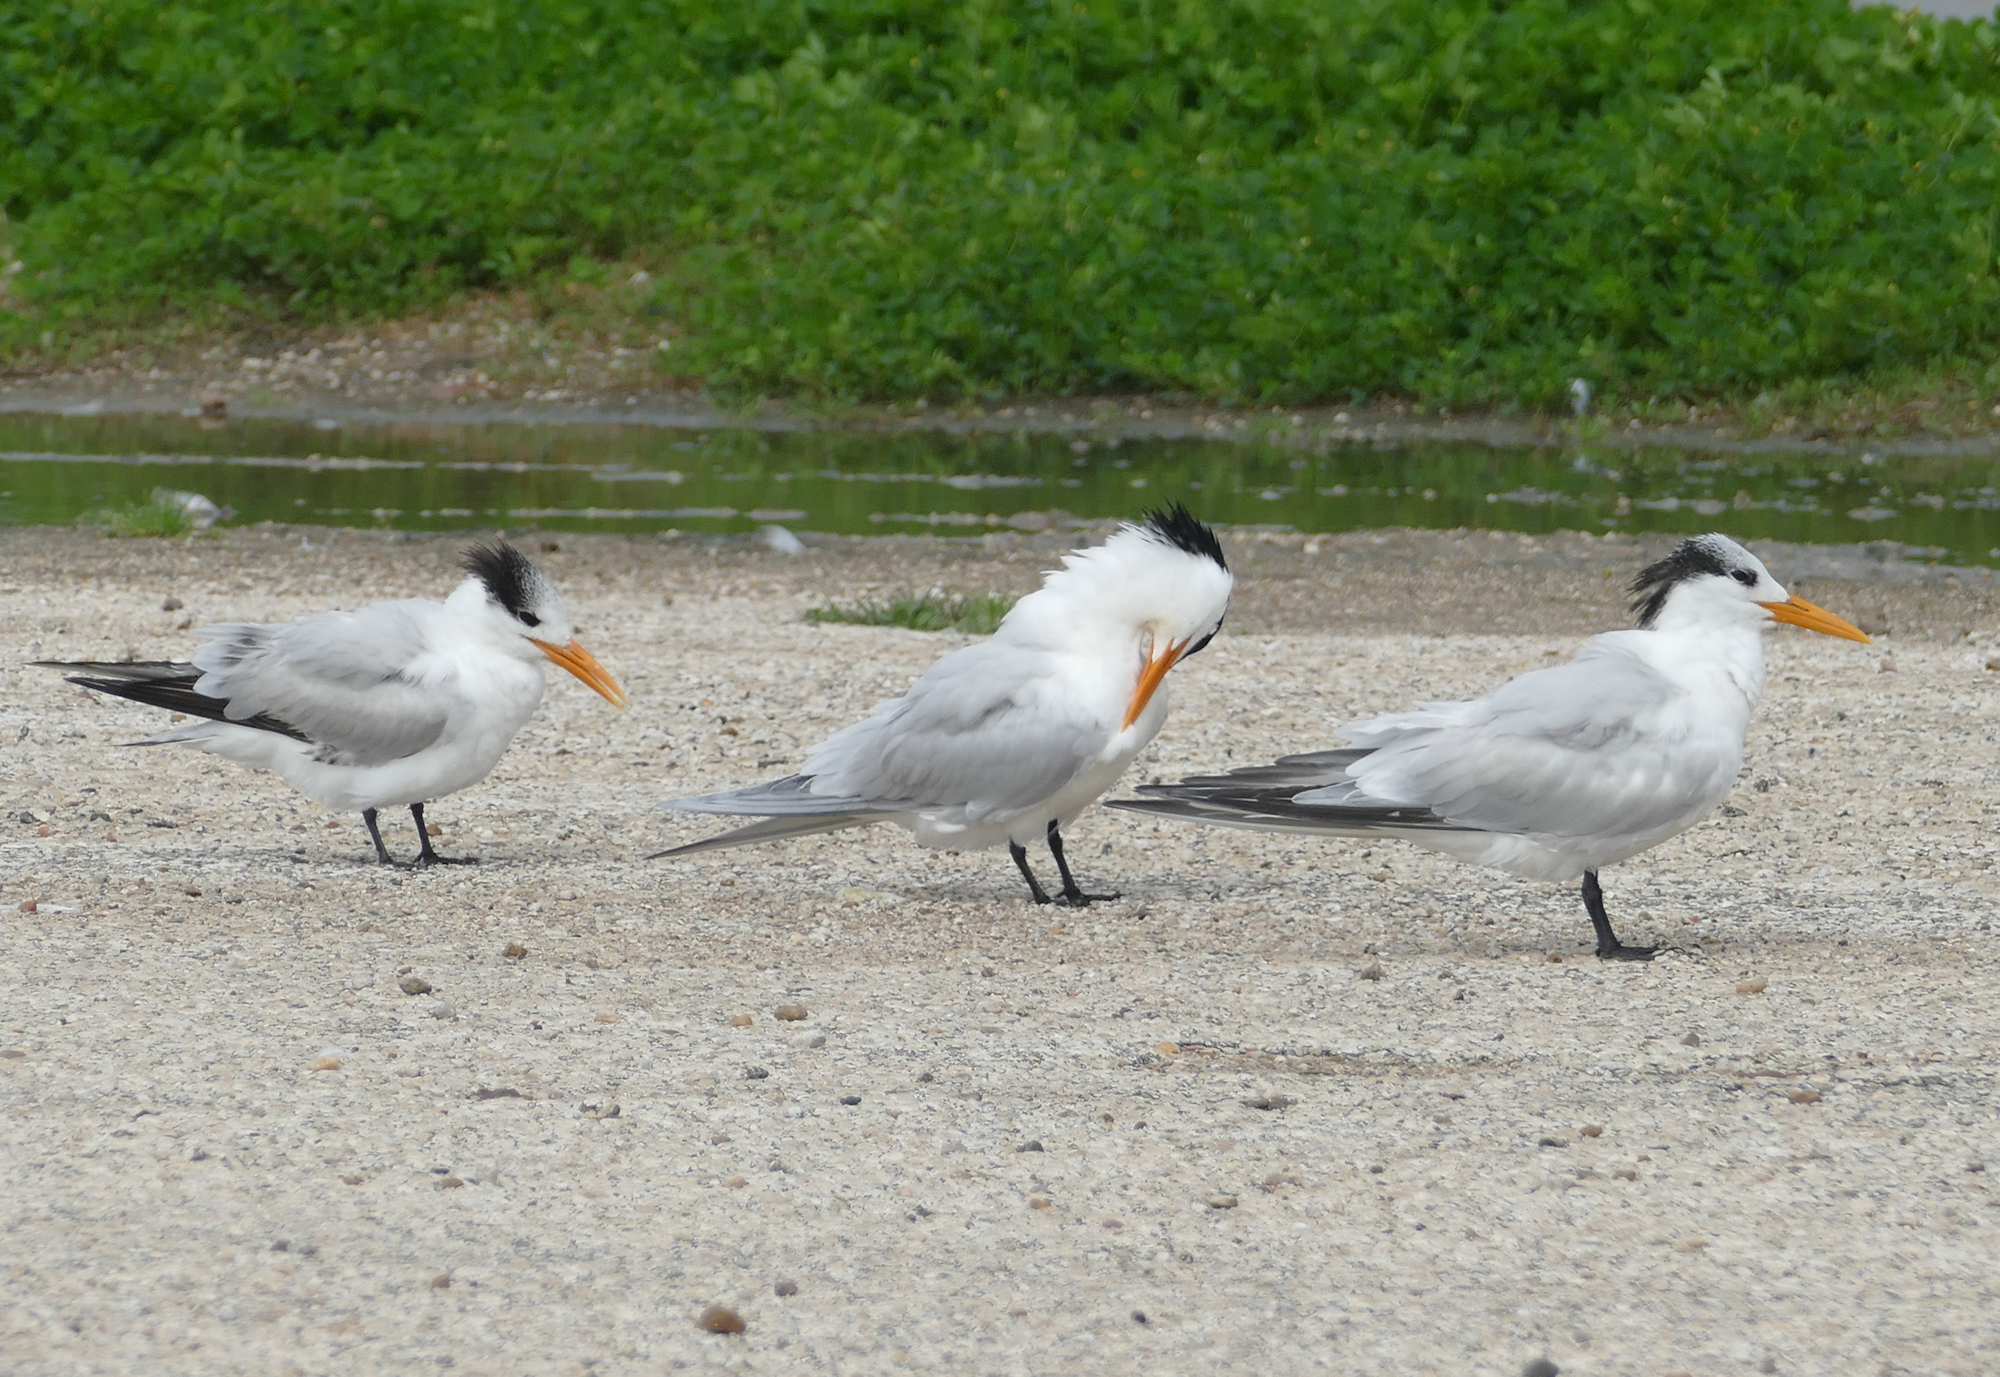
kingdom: Animalia
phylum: Chordata
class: Aves
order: Charadriiformes
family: Laridae
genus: Thalasseus
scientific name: Thalasseus maximus
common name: Royal tern
